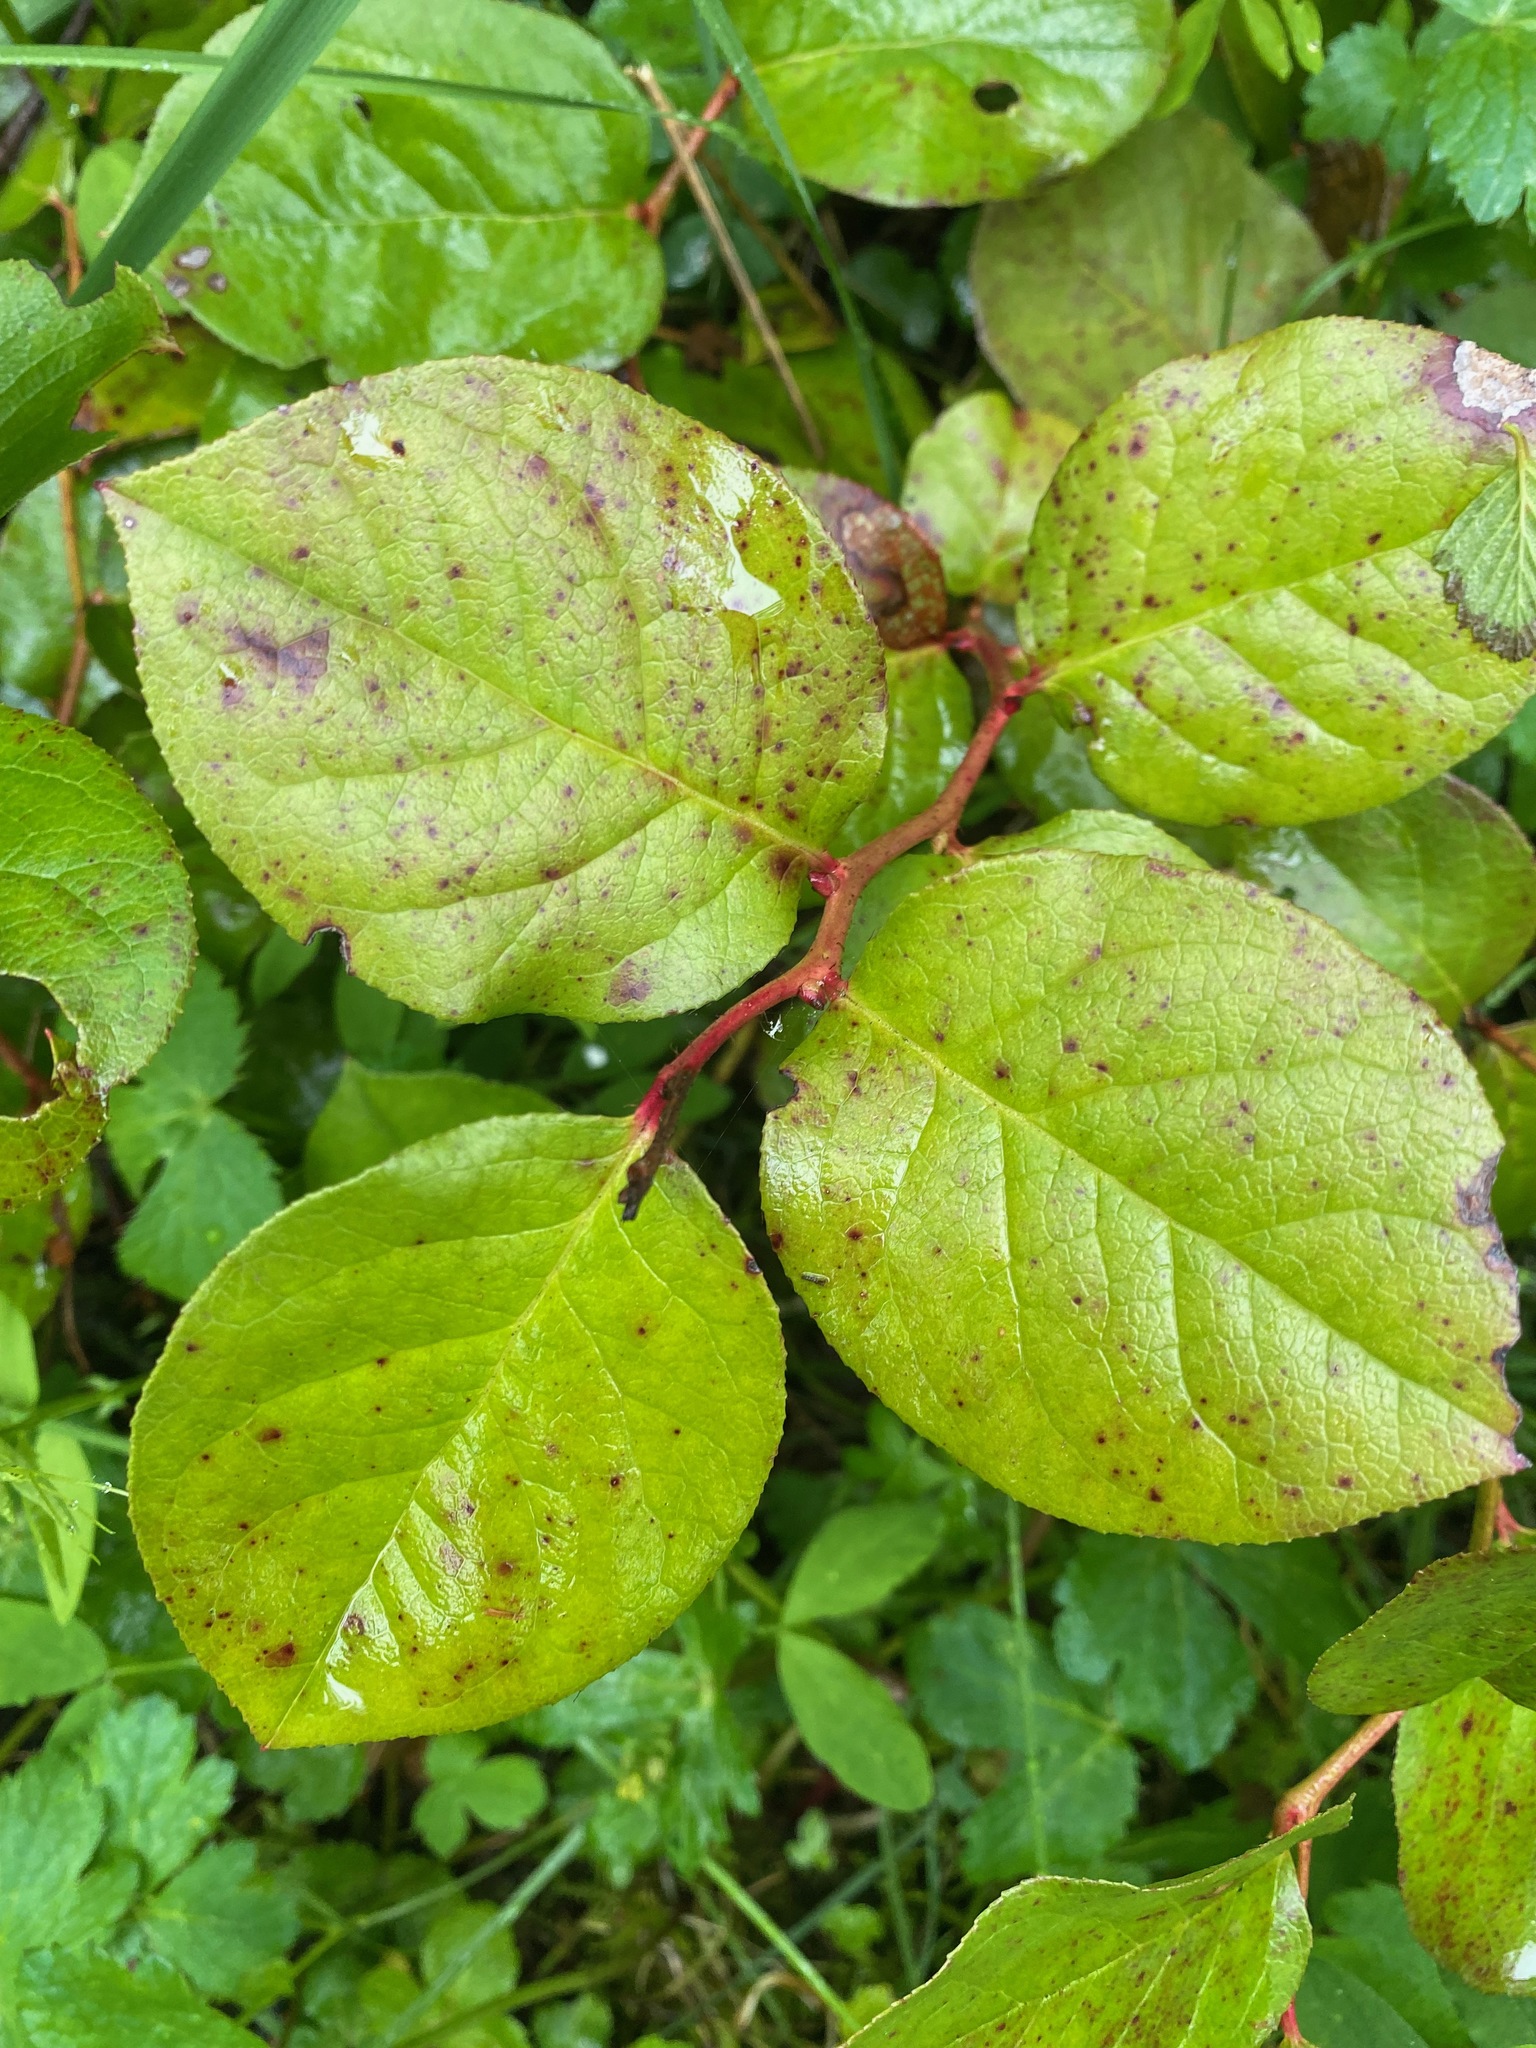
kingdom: Plantae
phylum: Tracheophyta
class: Magnoliopsida
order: Ericales
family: Ericaceae
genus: Gaultheria
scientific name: Gaultheria shallon
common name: Shallon
